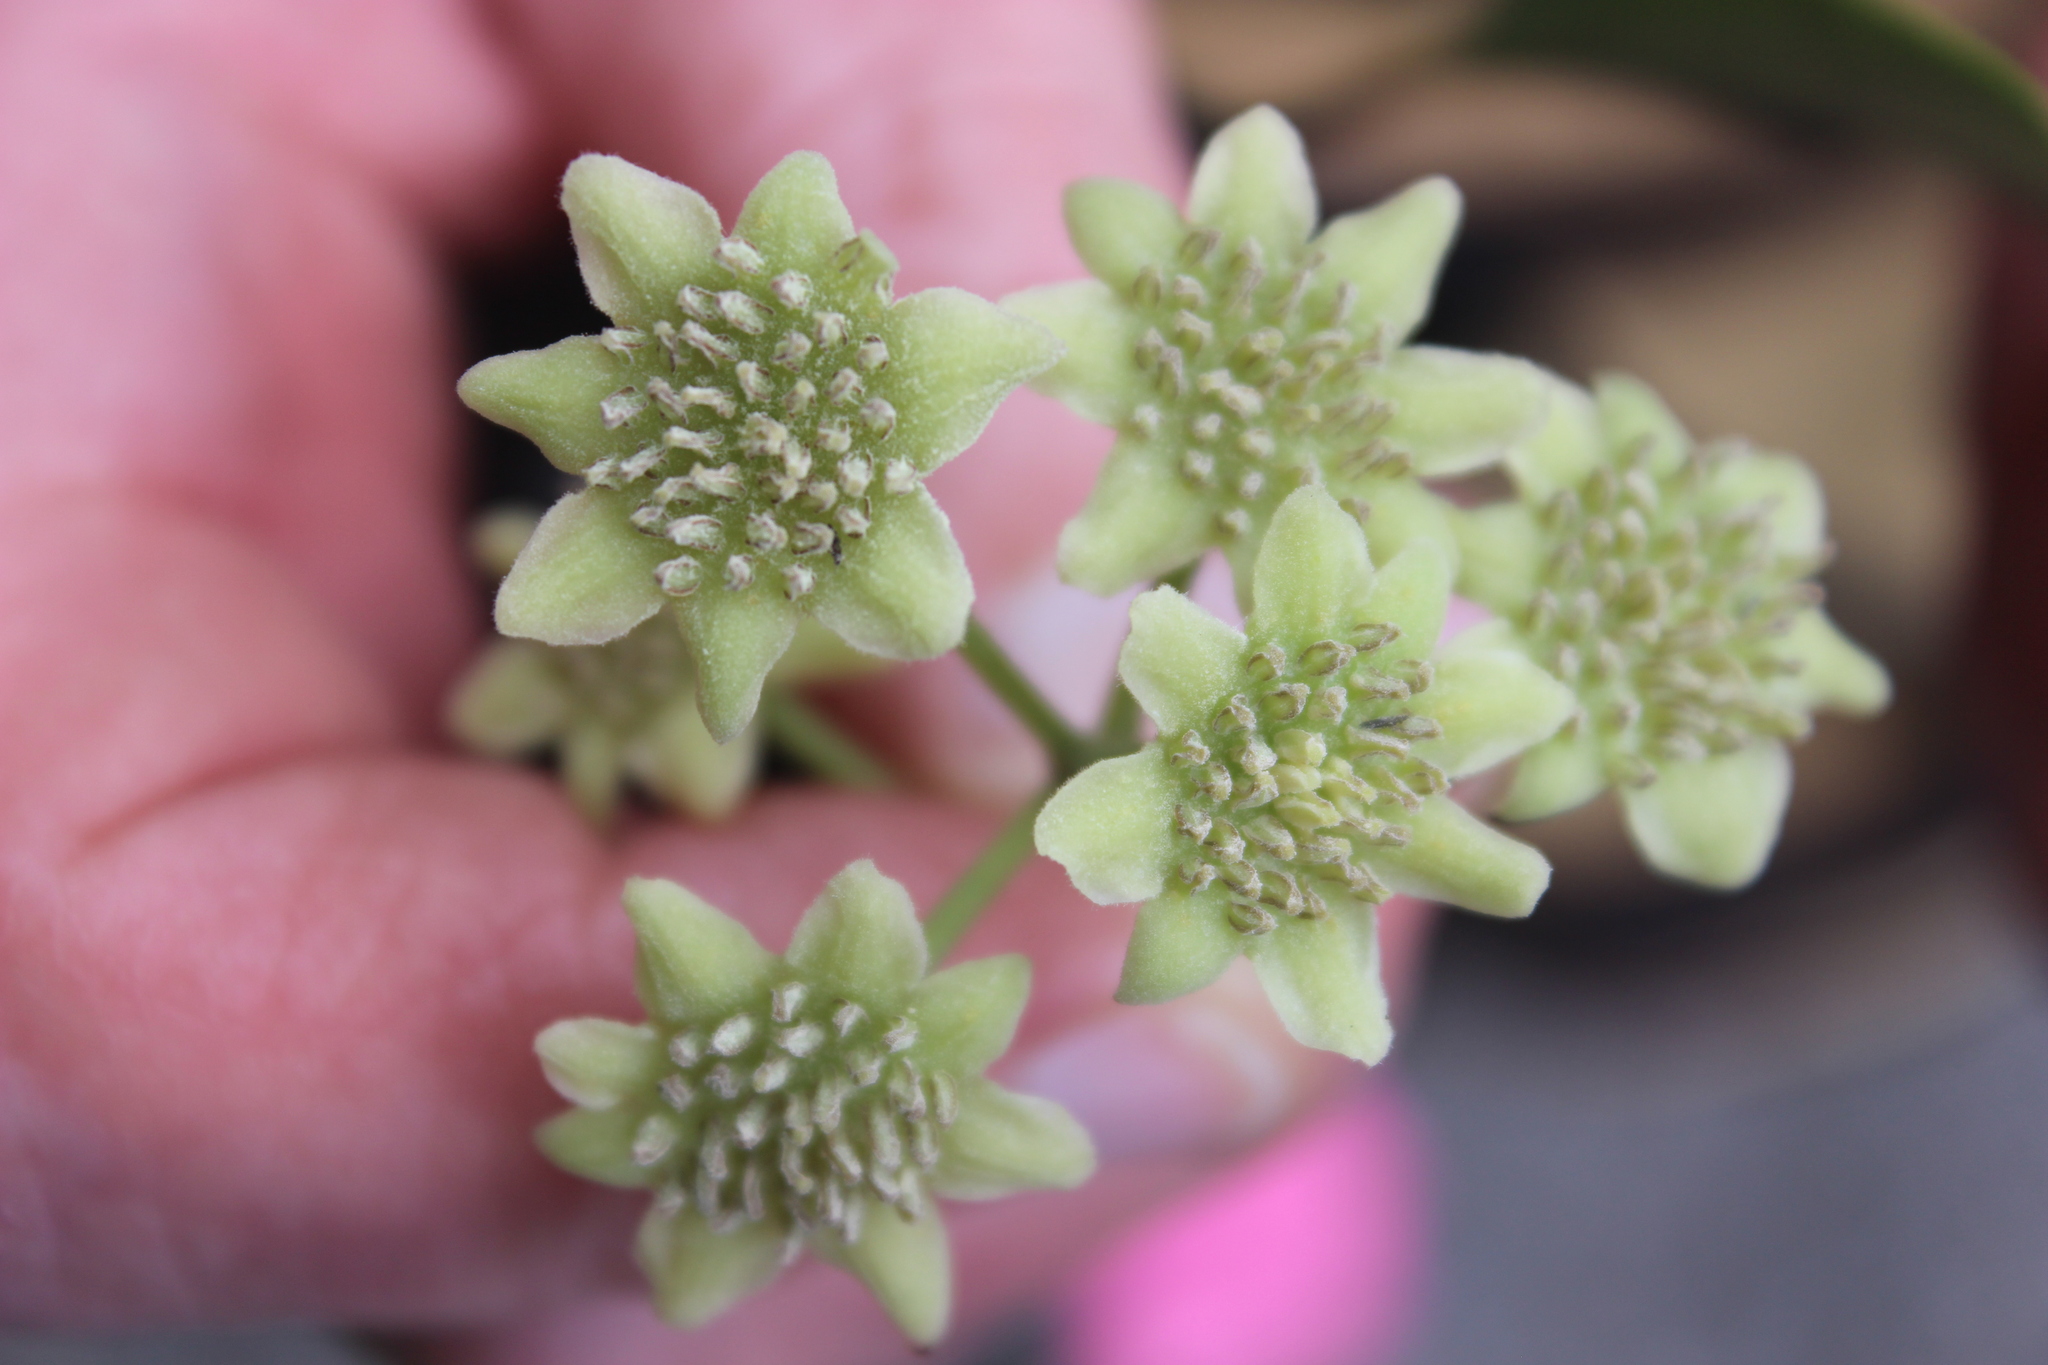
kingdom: Plantae
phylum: Tracheophyta
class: Magnoliopsida
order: Laurales
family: Monimiaceae
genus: Hedycarya
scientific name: Hedycarya arborea
